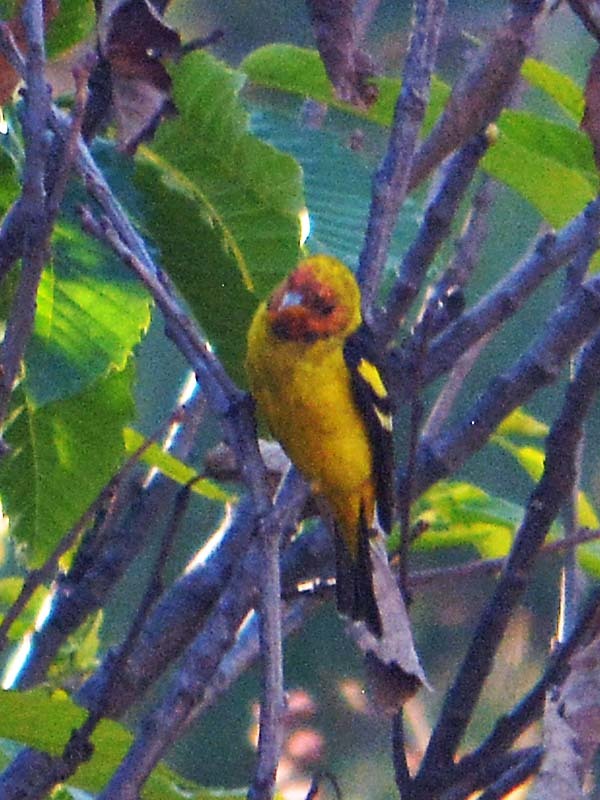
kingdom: Animalia
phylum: Chordata
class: Aves
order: Passeriformes
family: Cardinalidae
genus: Piranga
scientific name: Piranga ludoviciana
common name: Western tanager
